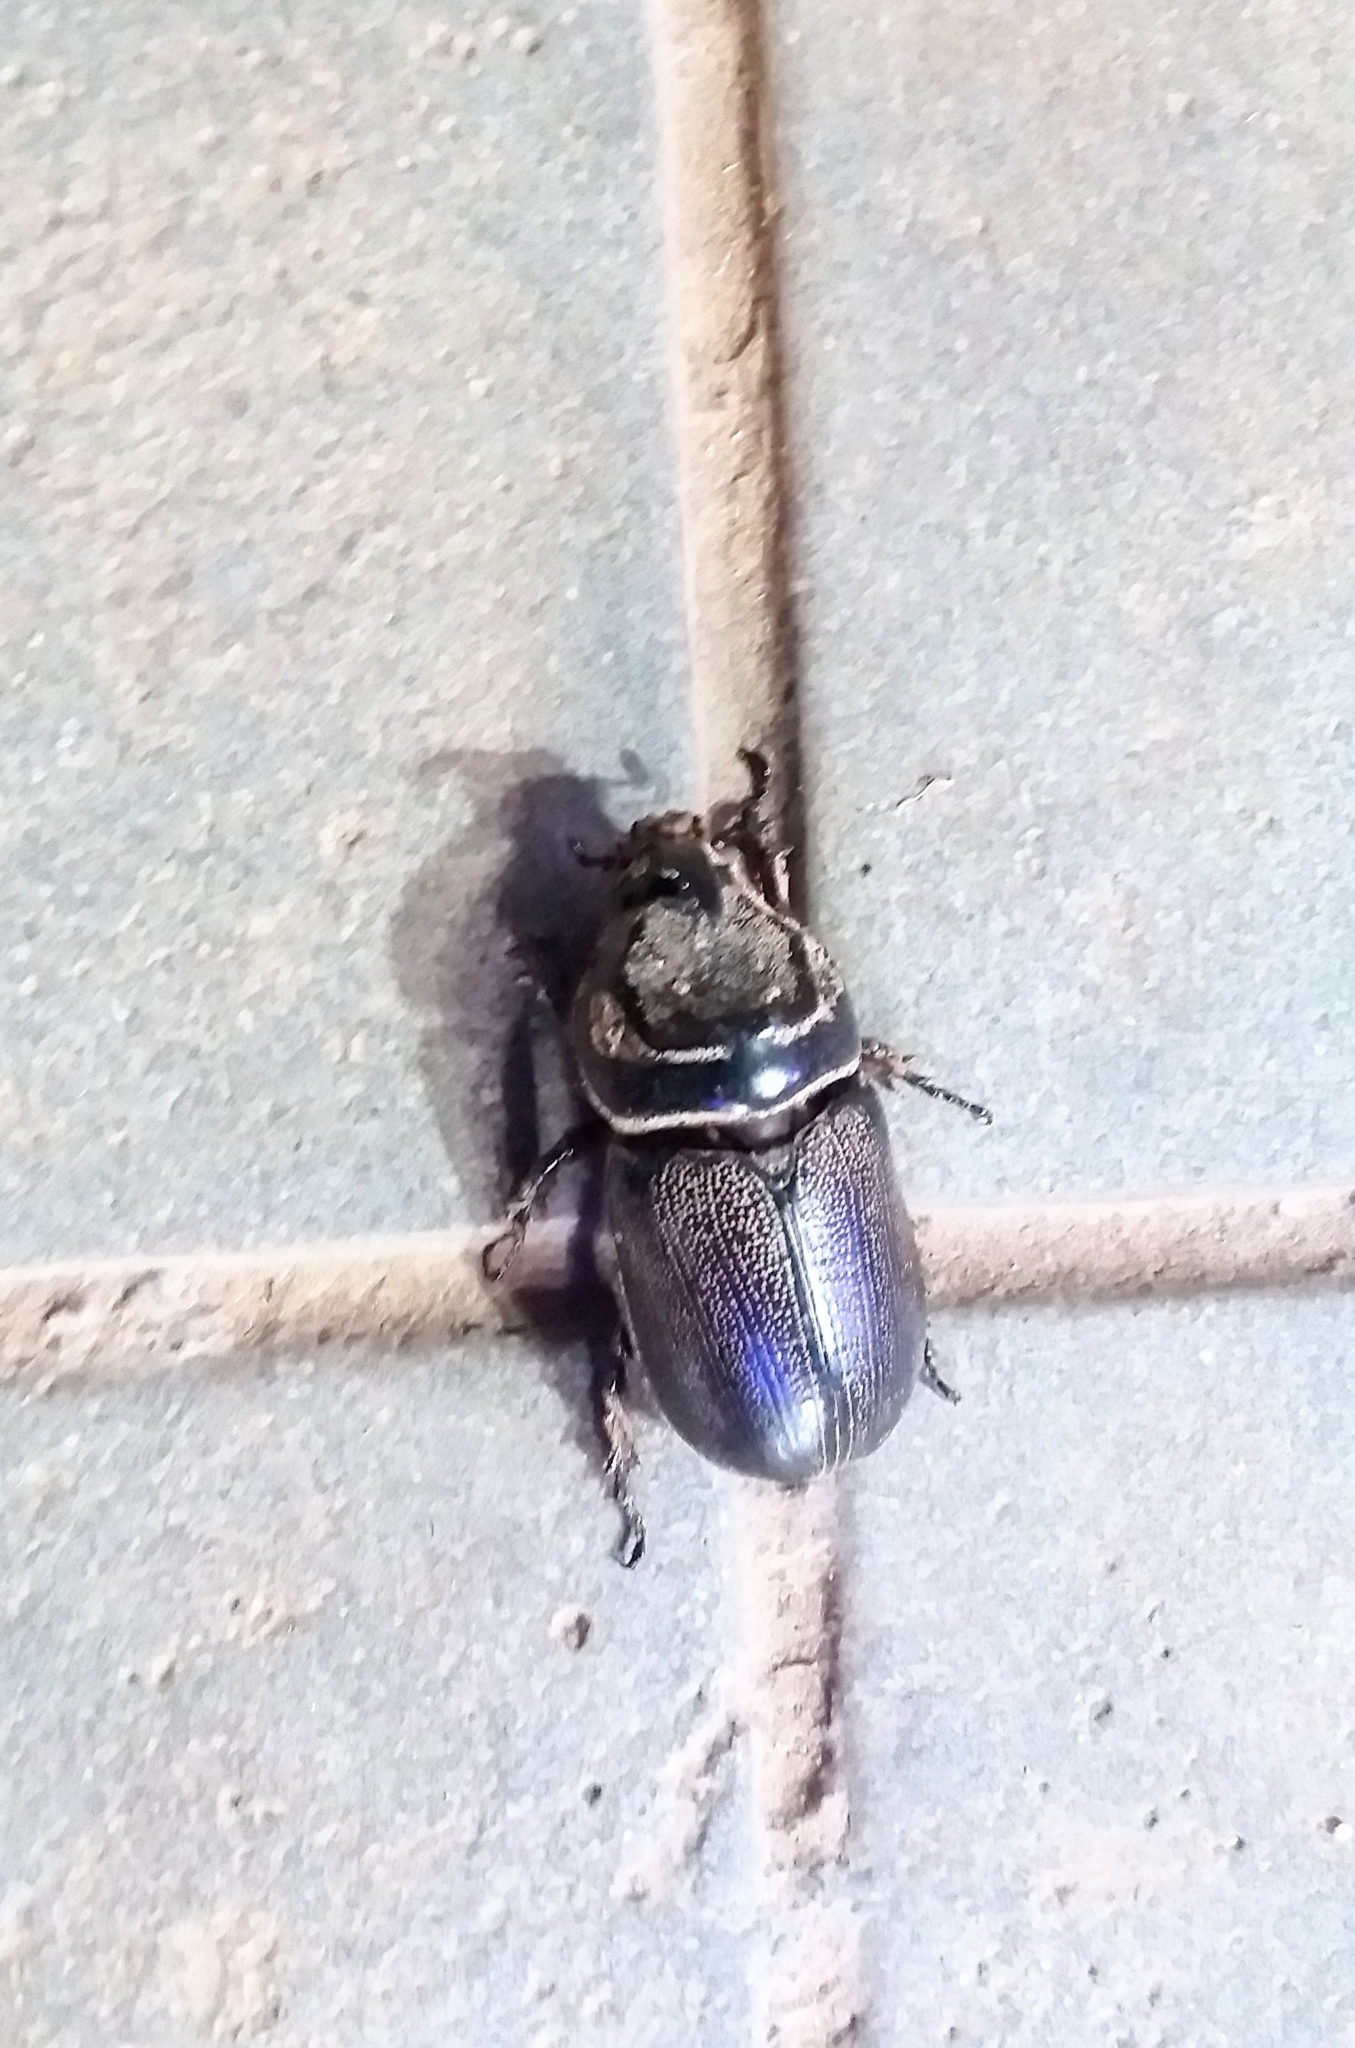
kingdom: Animalia
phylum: Arthropoda
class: Insecta
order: Coleoptera
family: Scarabaeidae
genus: Oryctes
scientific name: Oryctes rhinoceros
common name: Coconut rhinoceros beetle
